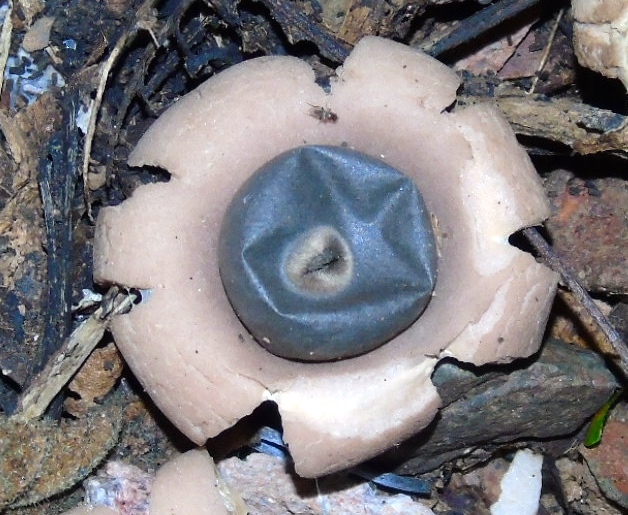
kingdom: Fungi
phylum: Basidiomycota
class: Agaricomycetes
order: Geastrales
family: Geastraceae
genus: Geastrum
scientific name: Geastrum
